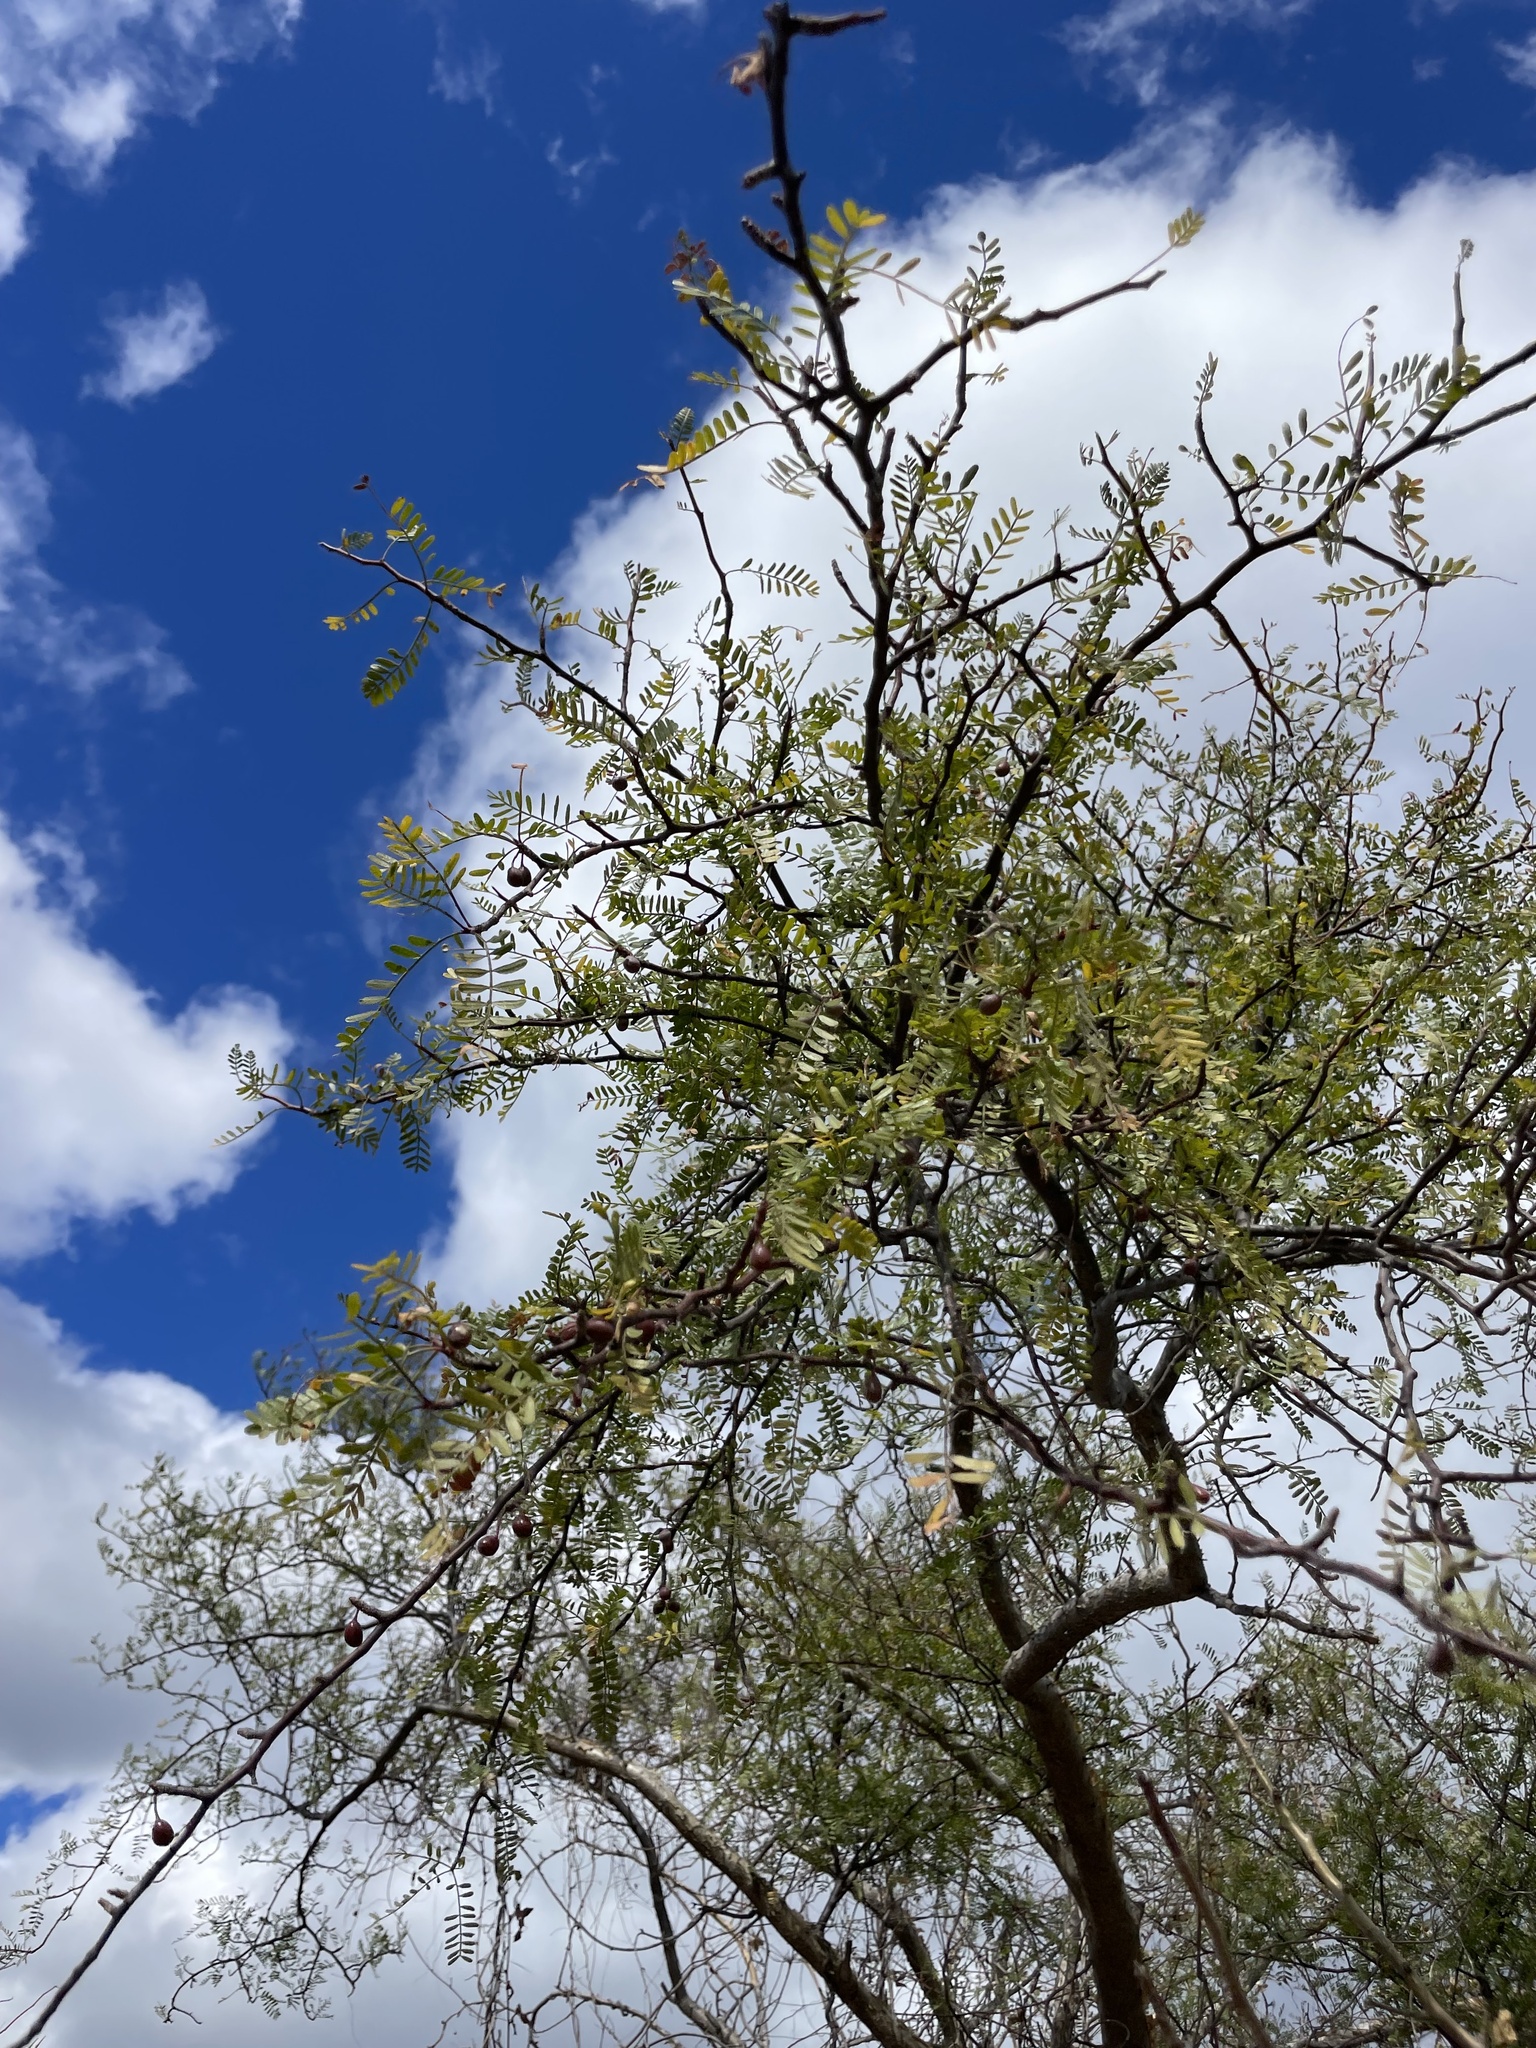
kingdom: Plantae
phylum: Tracheophyta
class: Magnoliopsida
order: Sapindales
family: Burseraceae
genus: Bursera
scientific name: Bursera microphylla
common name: Elephant tree
